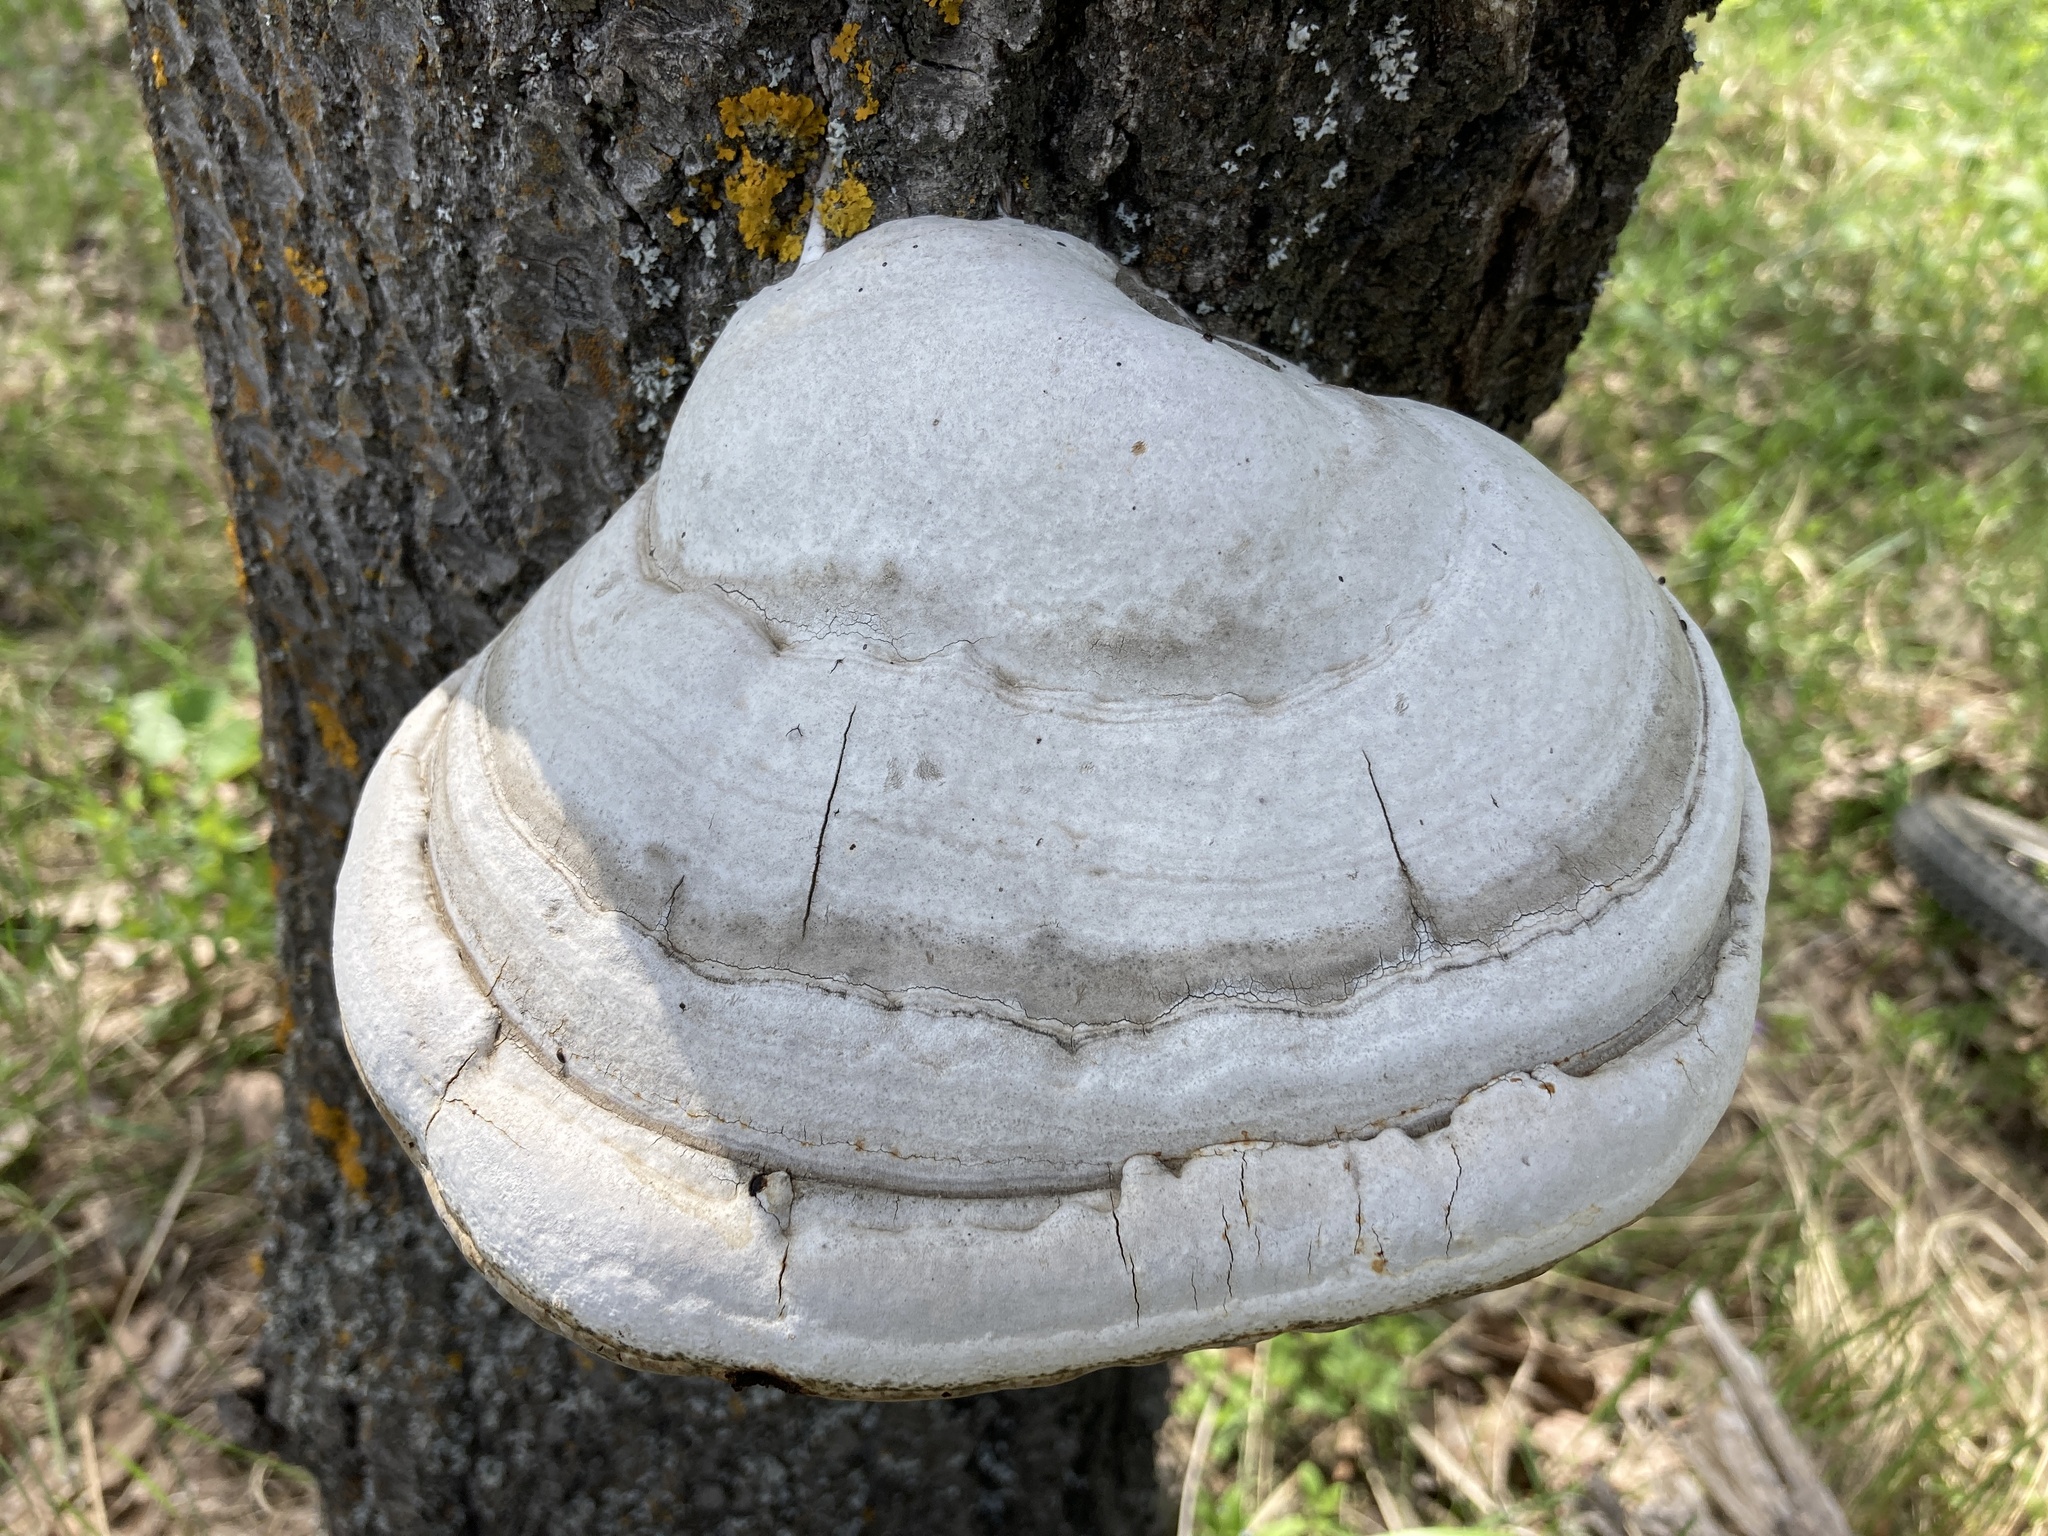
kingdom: Fungi
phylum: Basidiomycota
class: Agaricomycetes
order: Polyporales
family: Polyporaceae
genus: Fomes
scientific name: Fomes fomentarius
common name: Hoof fungus
